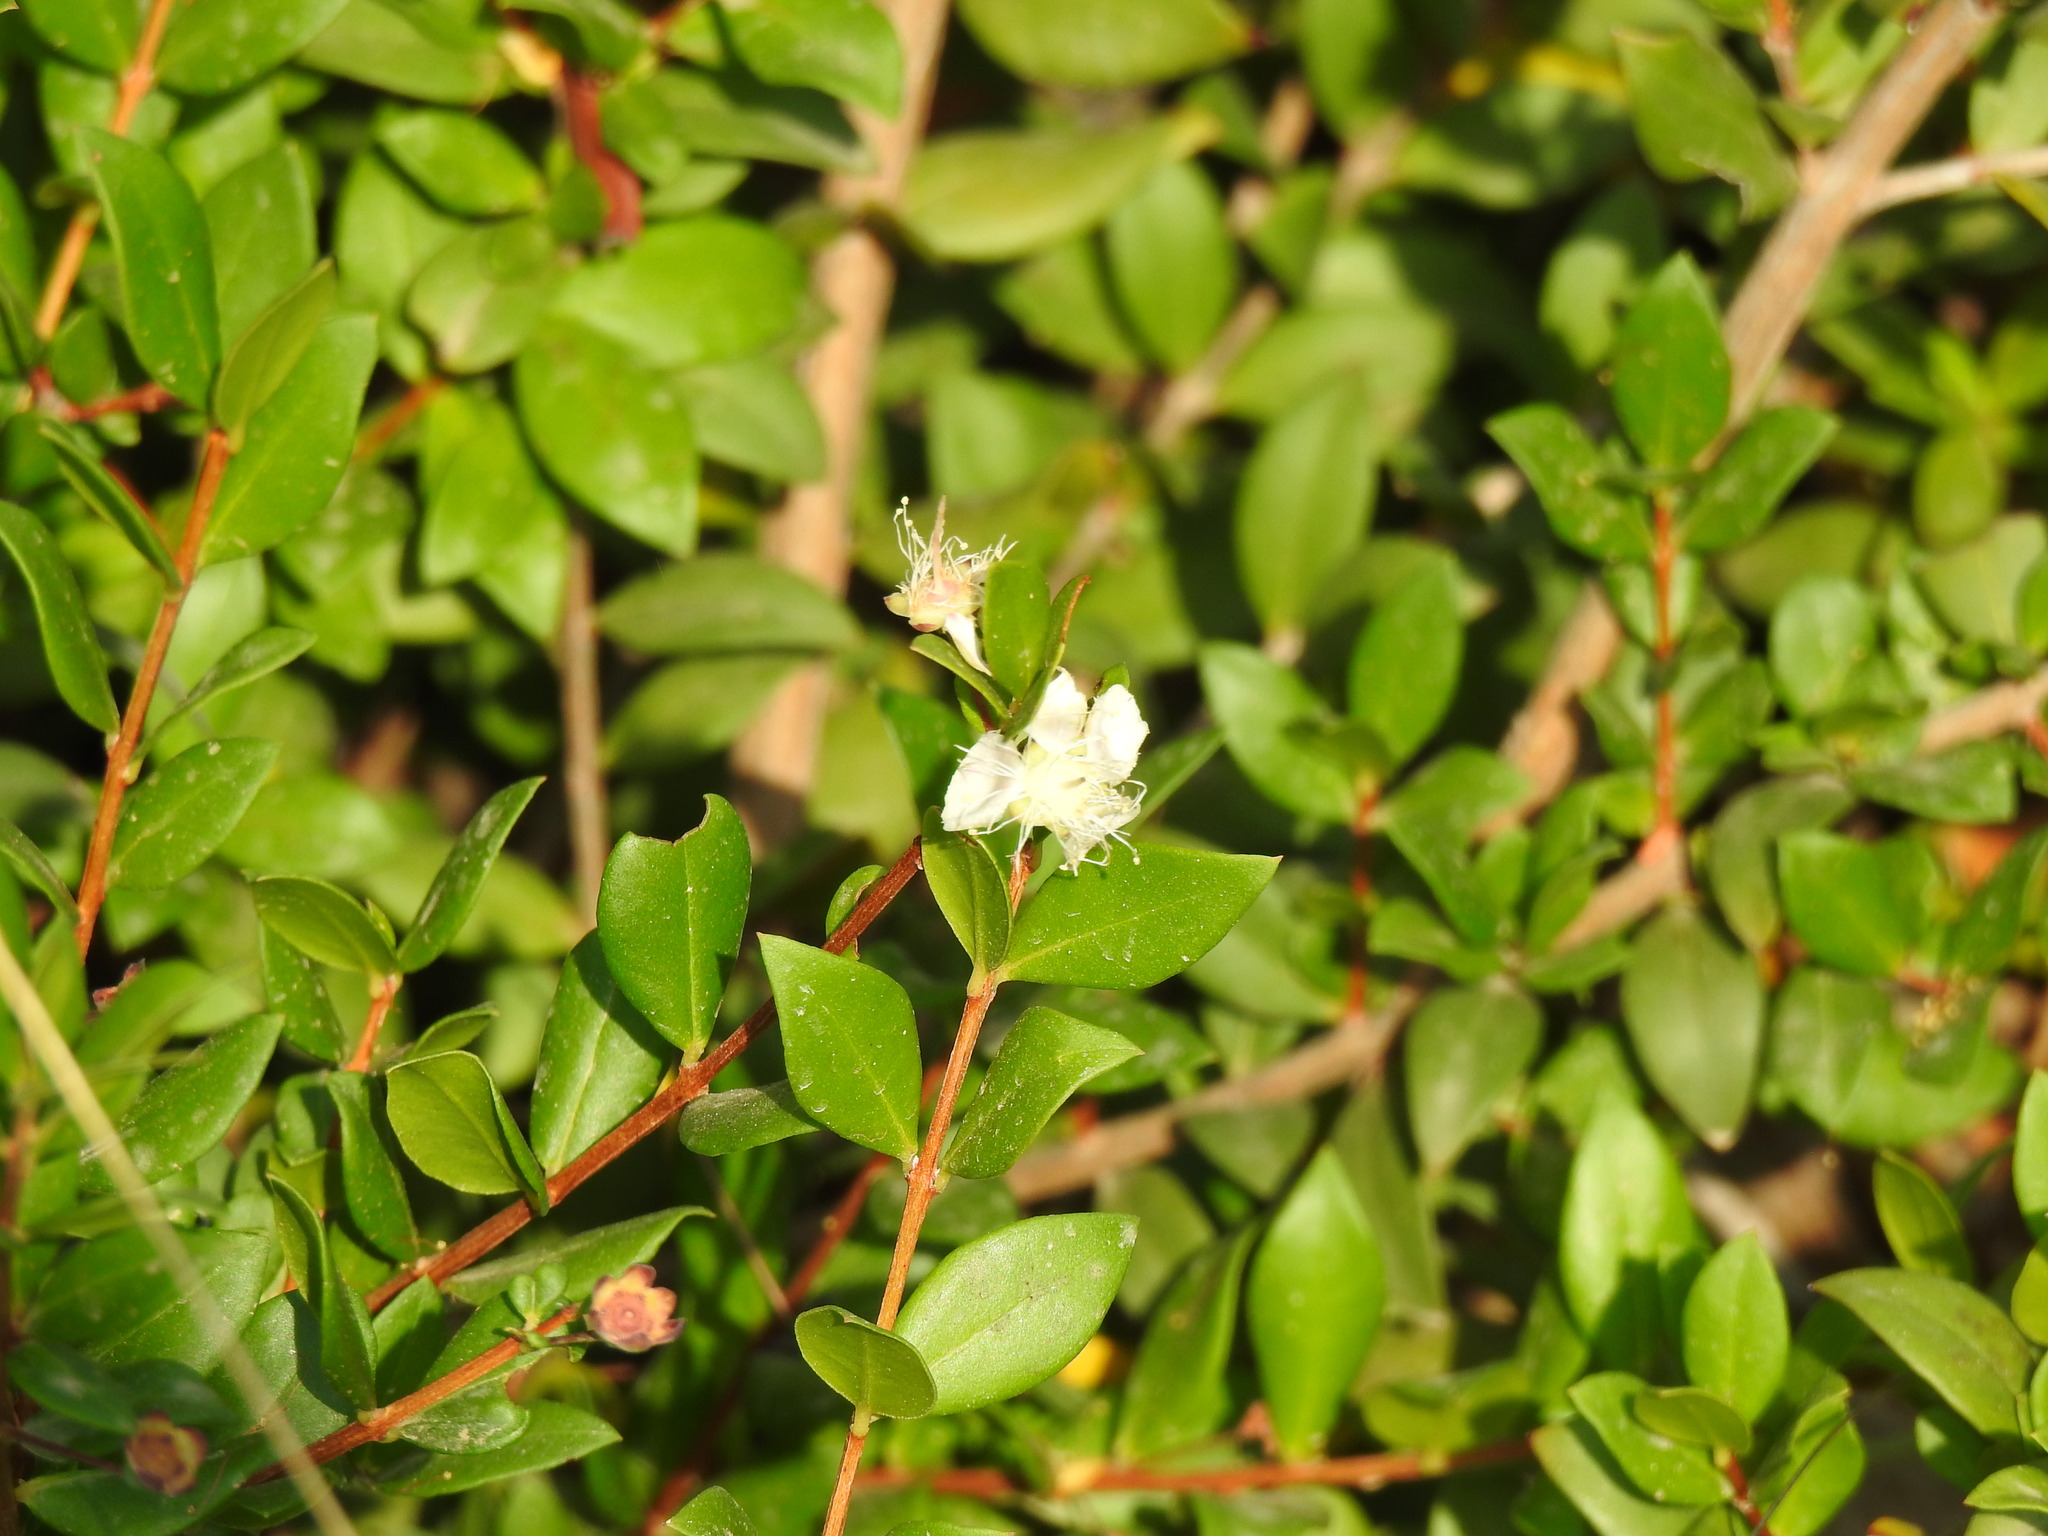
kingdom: Plantae
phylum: Tracheophyta
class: Magnoliopsida
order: Myrtales
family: Myrtaceae
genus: Myrtus
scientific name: Myrtus communis
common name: Myrtle
